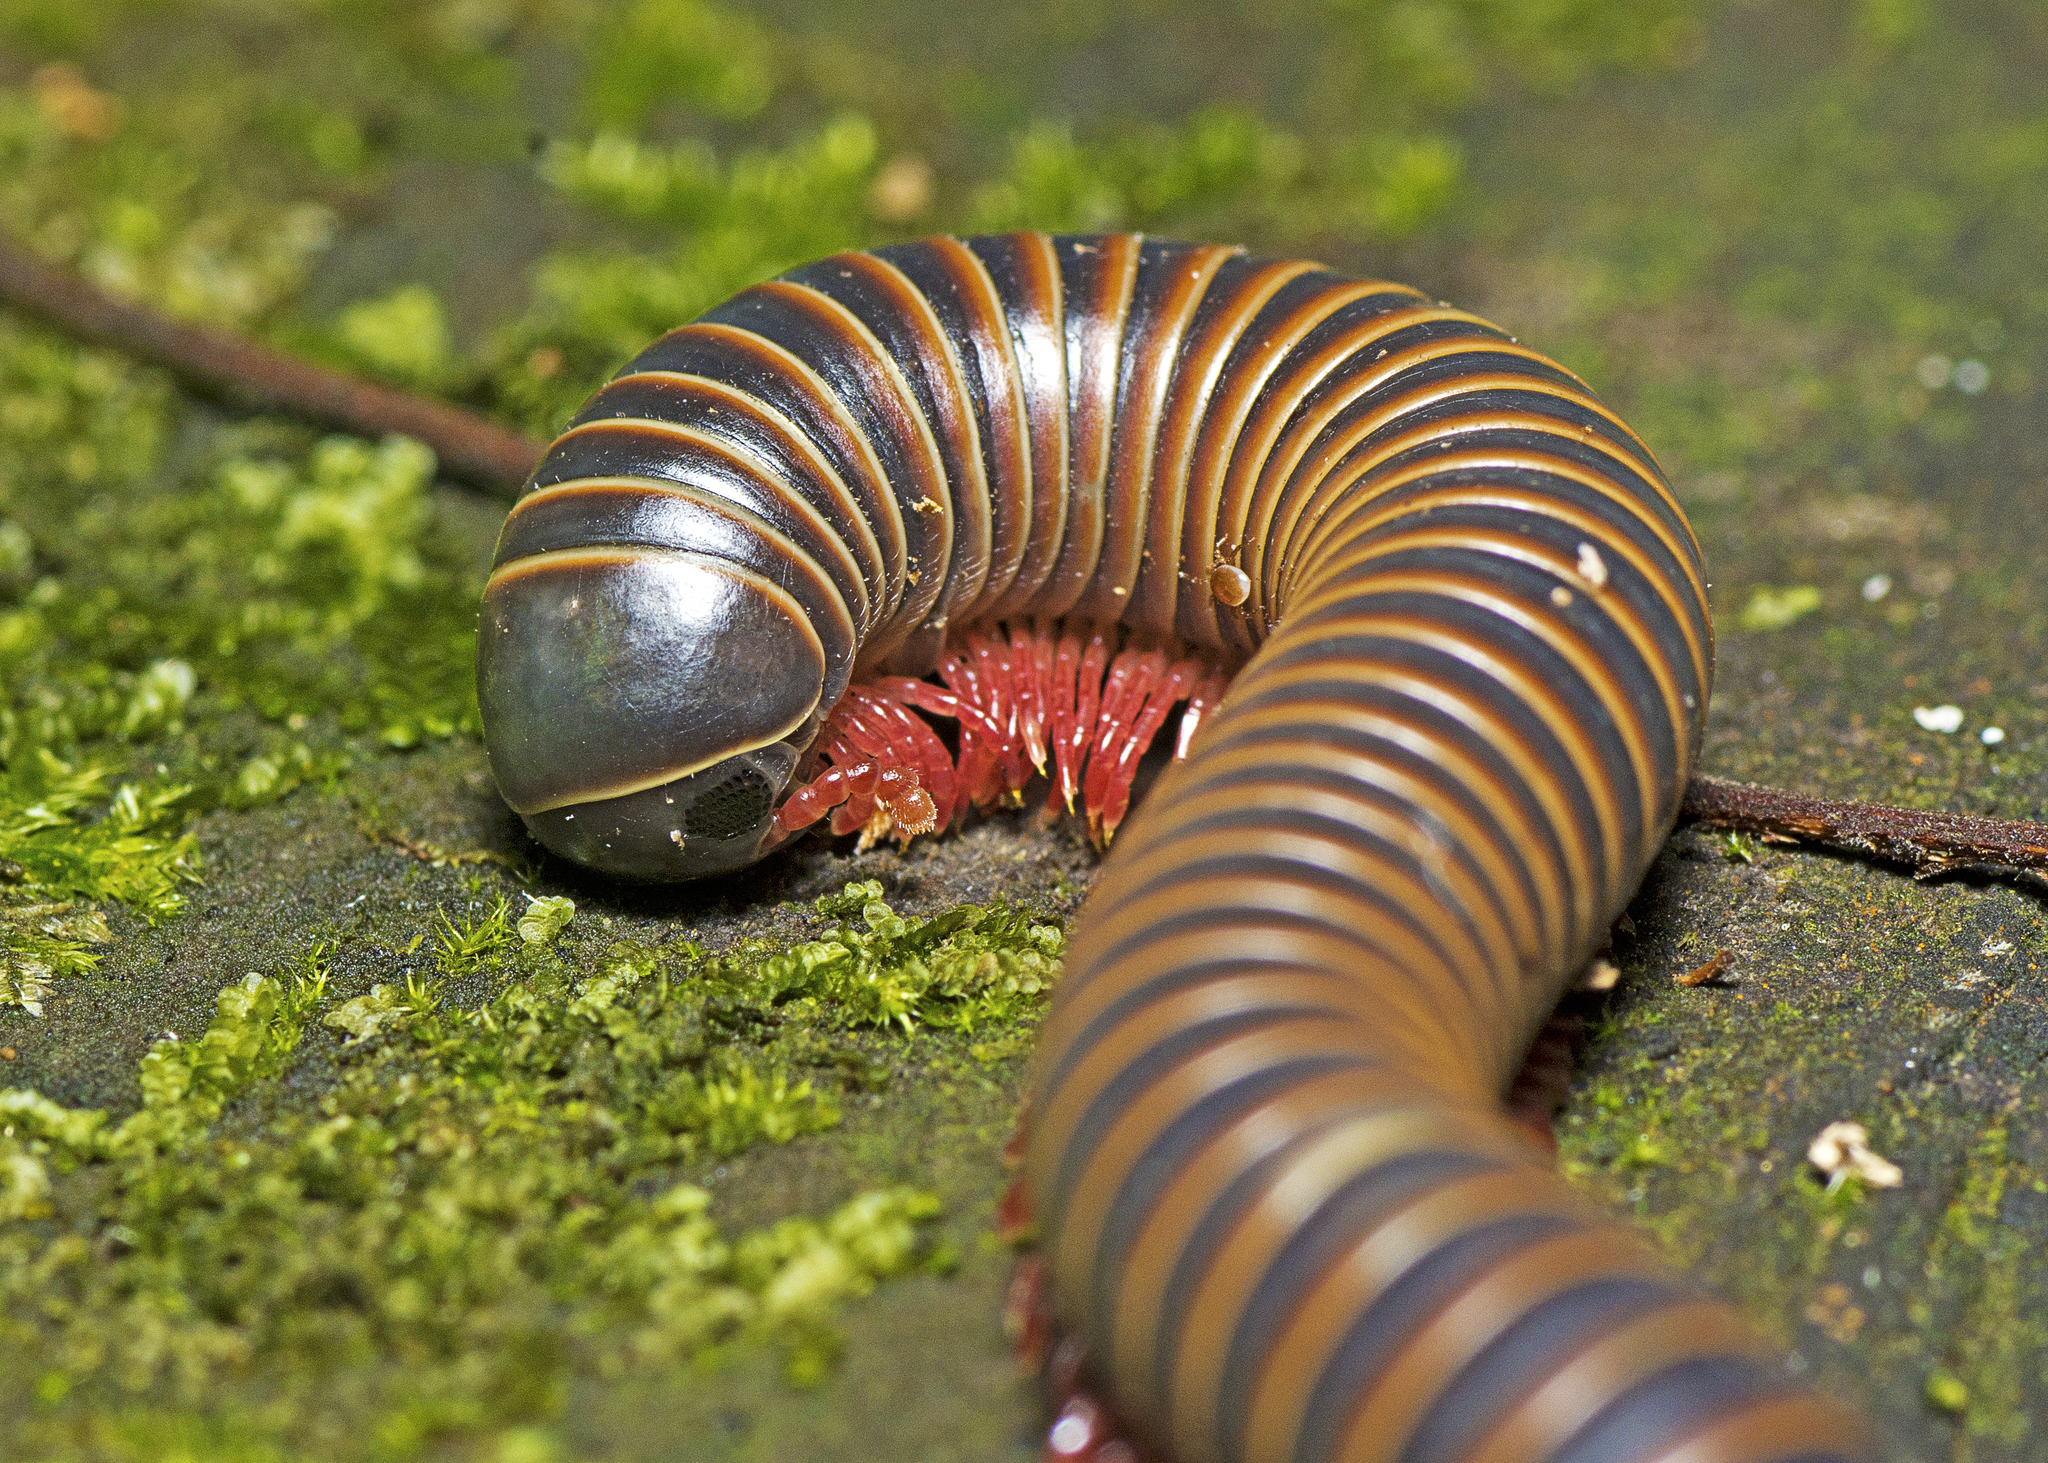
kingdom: Animalia
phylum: Arthropoda
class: Diplopoda
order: Spirobolida
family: Rhinocricidae
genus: Australocricus
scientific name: Australocricus perditus
